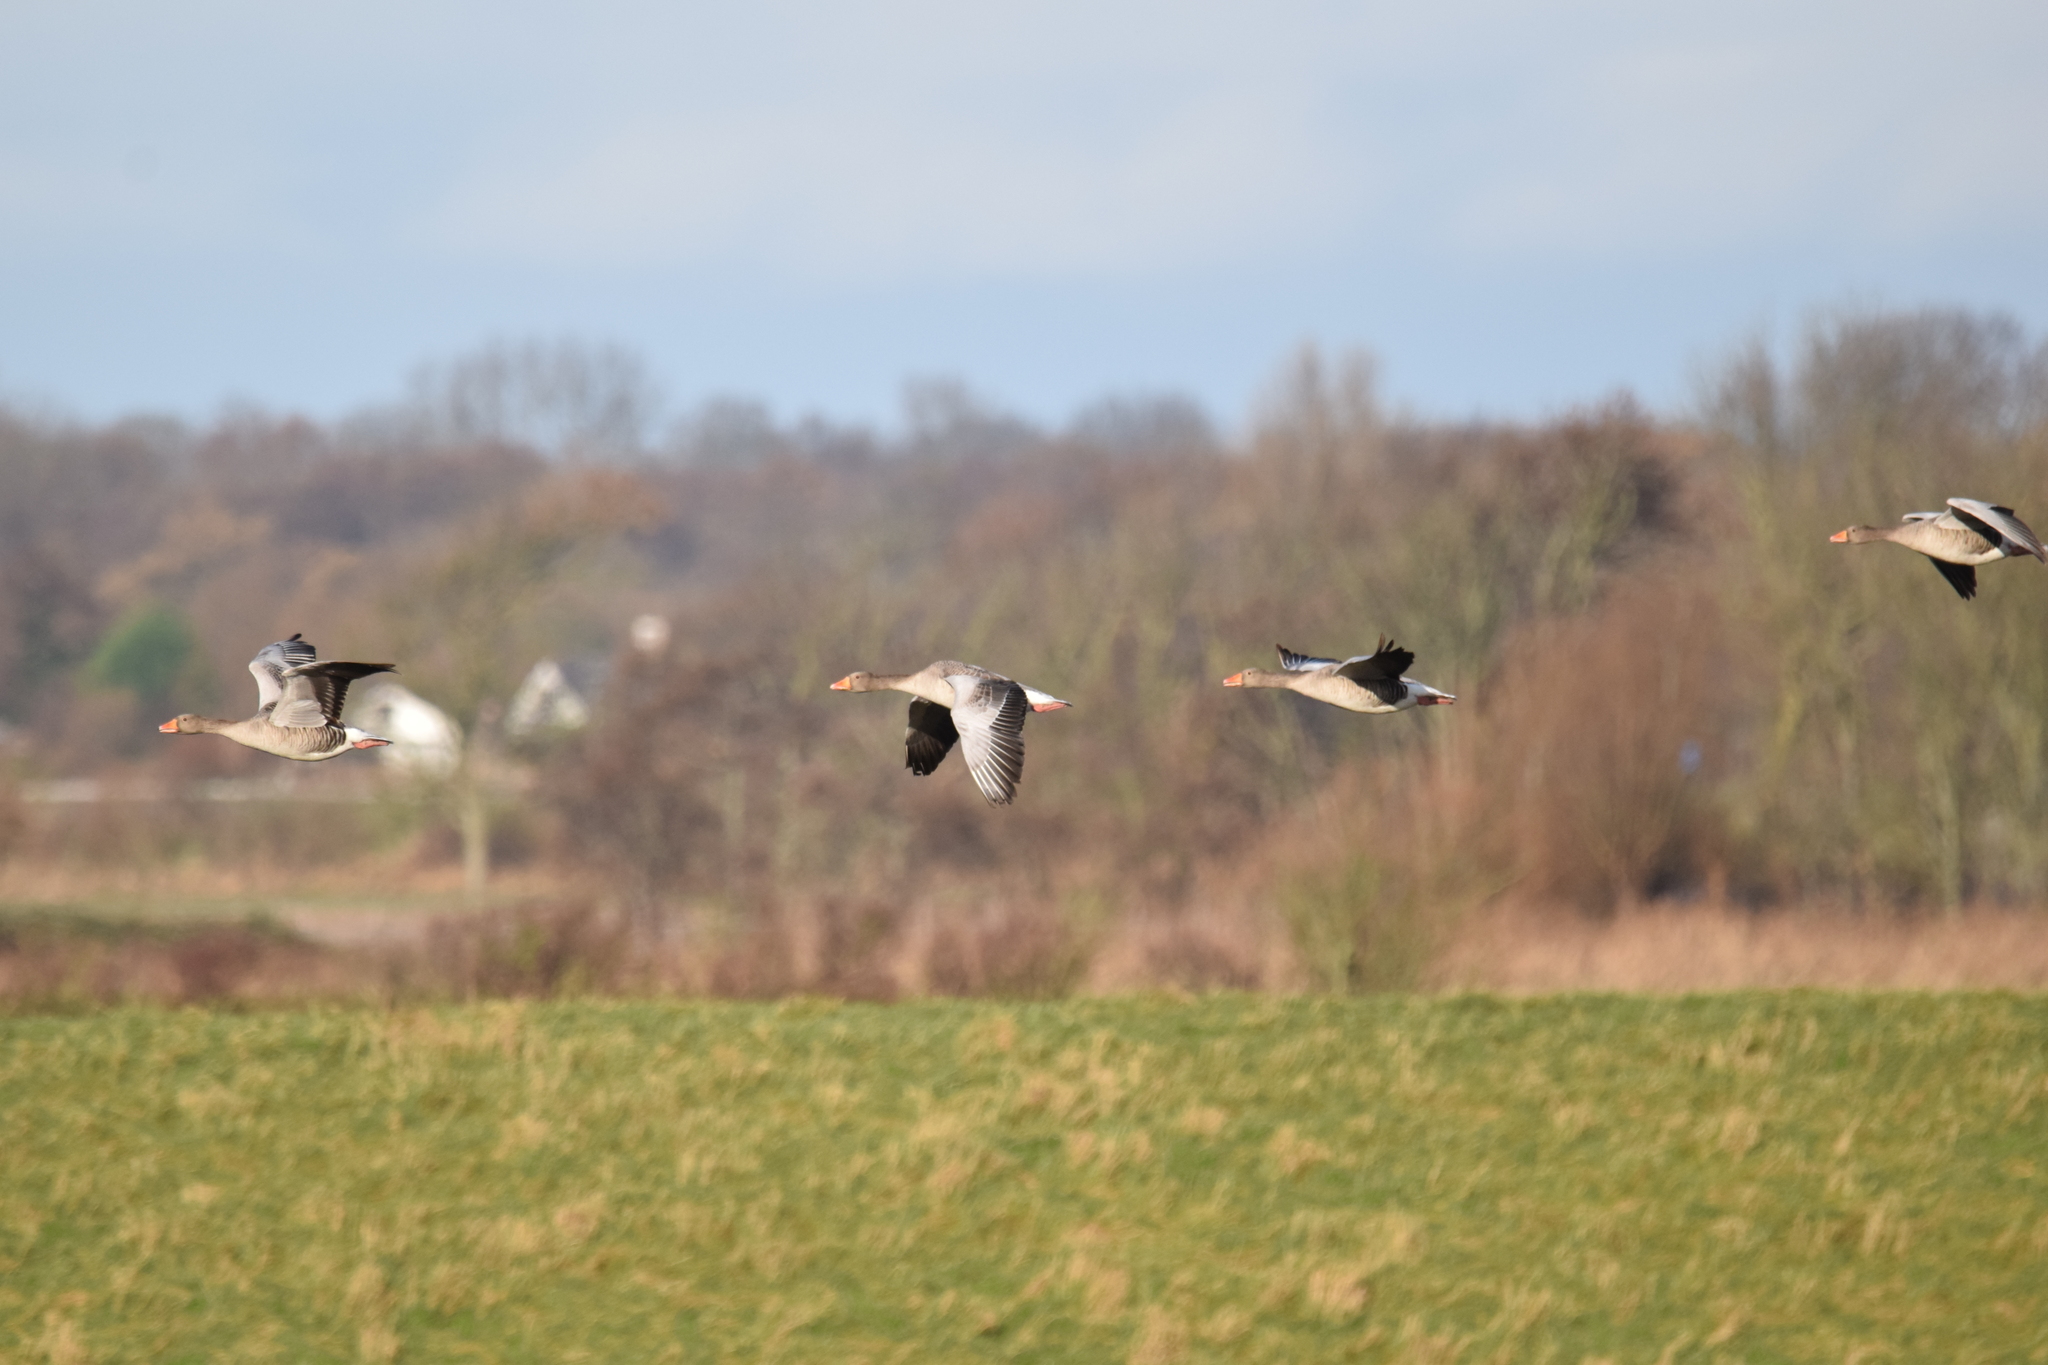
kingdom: Animalia
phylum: Chordata
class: Aves
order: Anseriformes
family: Anatidae
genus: Anser
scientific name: Anser anser
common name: Greylag goose
